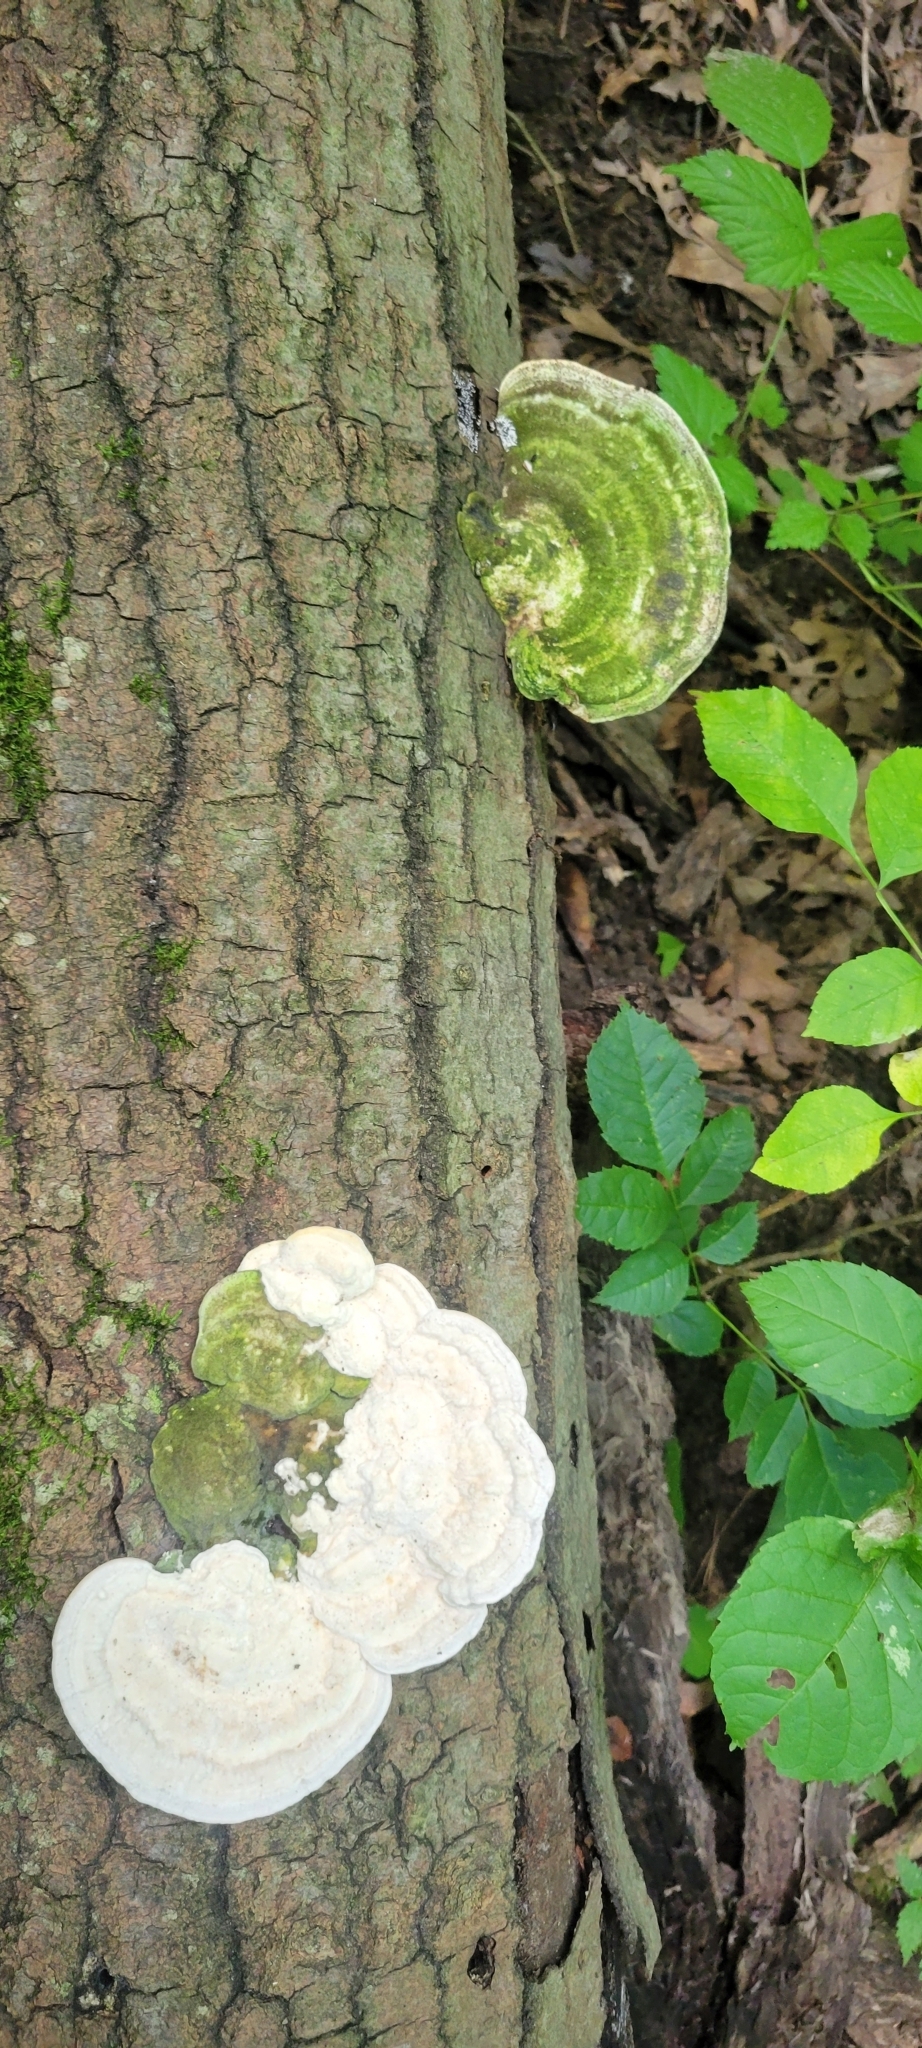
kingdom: Fungi
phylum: Basidiomycota
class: Agaricomycetes
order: Polyporales
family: Polyporaceae
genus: Trametes
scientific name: Trametes gibbosa
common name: Lumpy bracket
